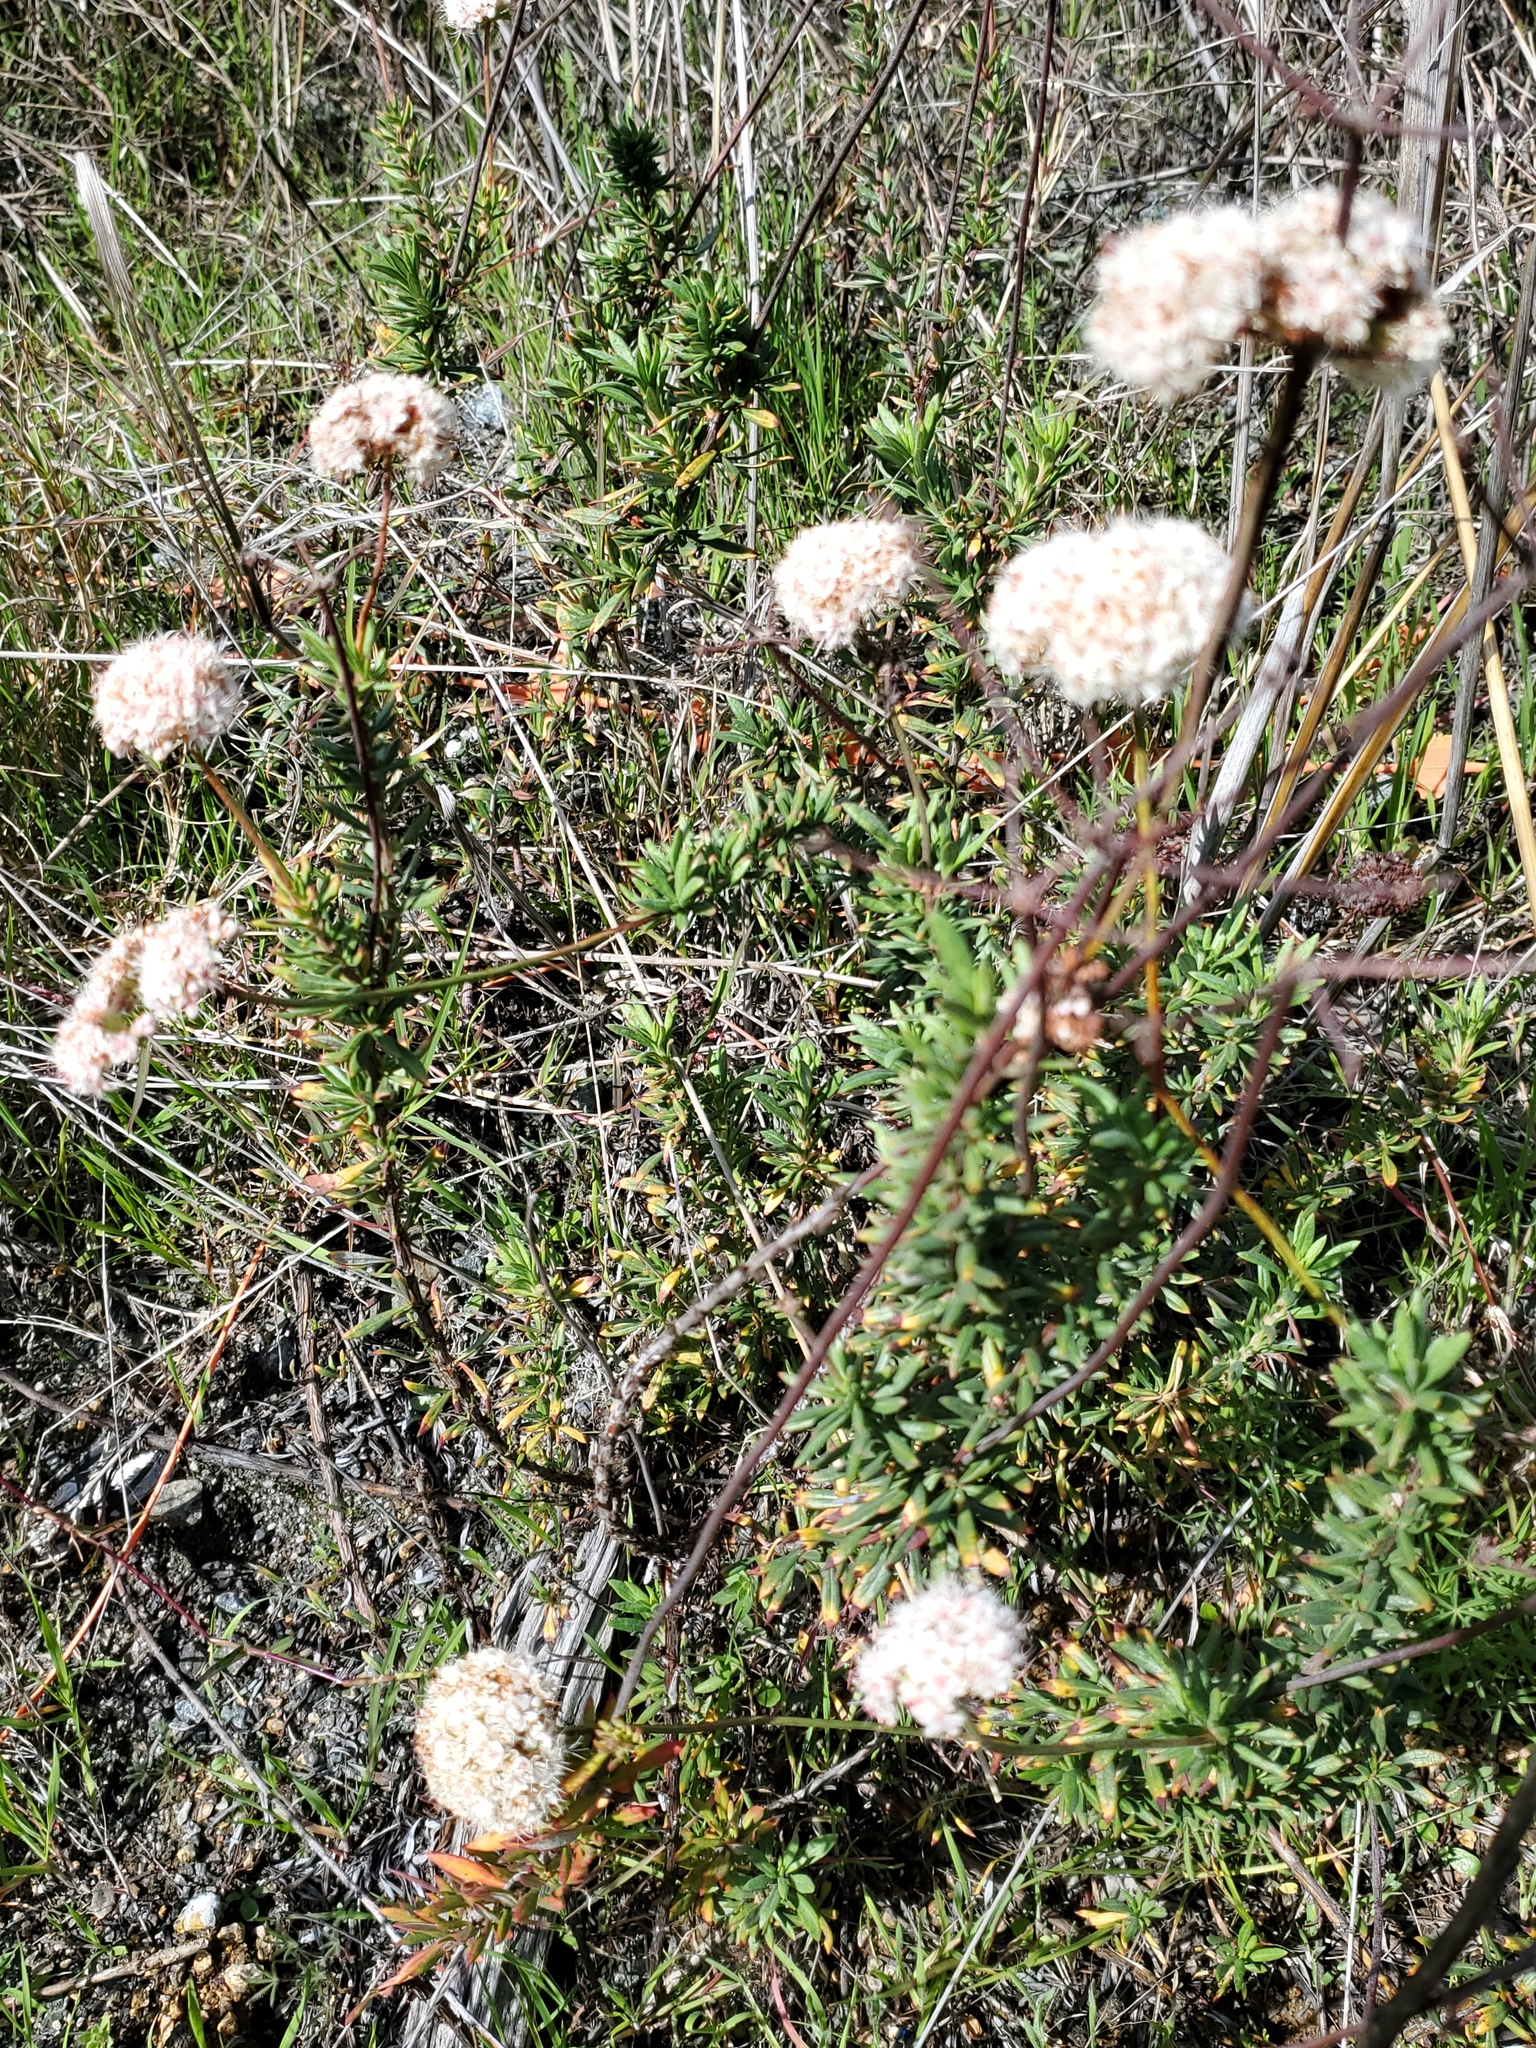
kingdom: Plantae
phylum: Tracheophyta
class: Magnoliopsida
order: Caryophyllales
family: Polygonaceae
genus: Eriogonum
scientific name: Eriogonum fasciculatum
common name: California wild buckwheat
